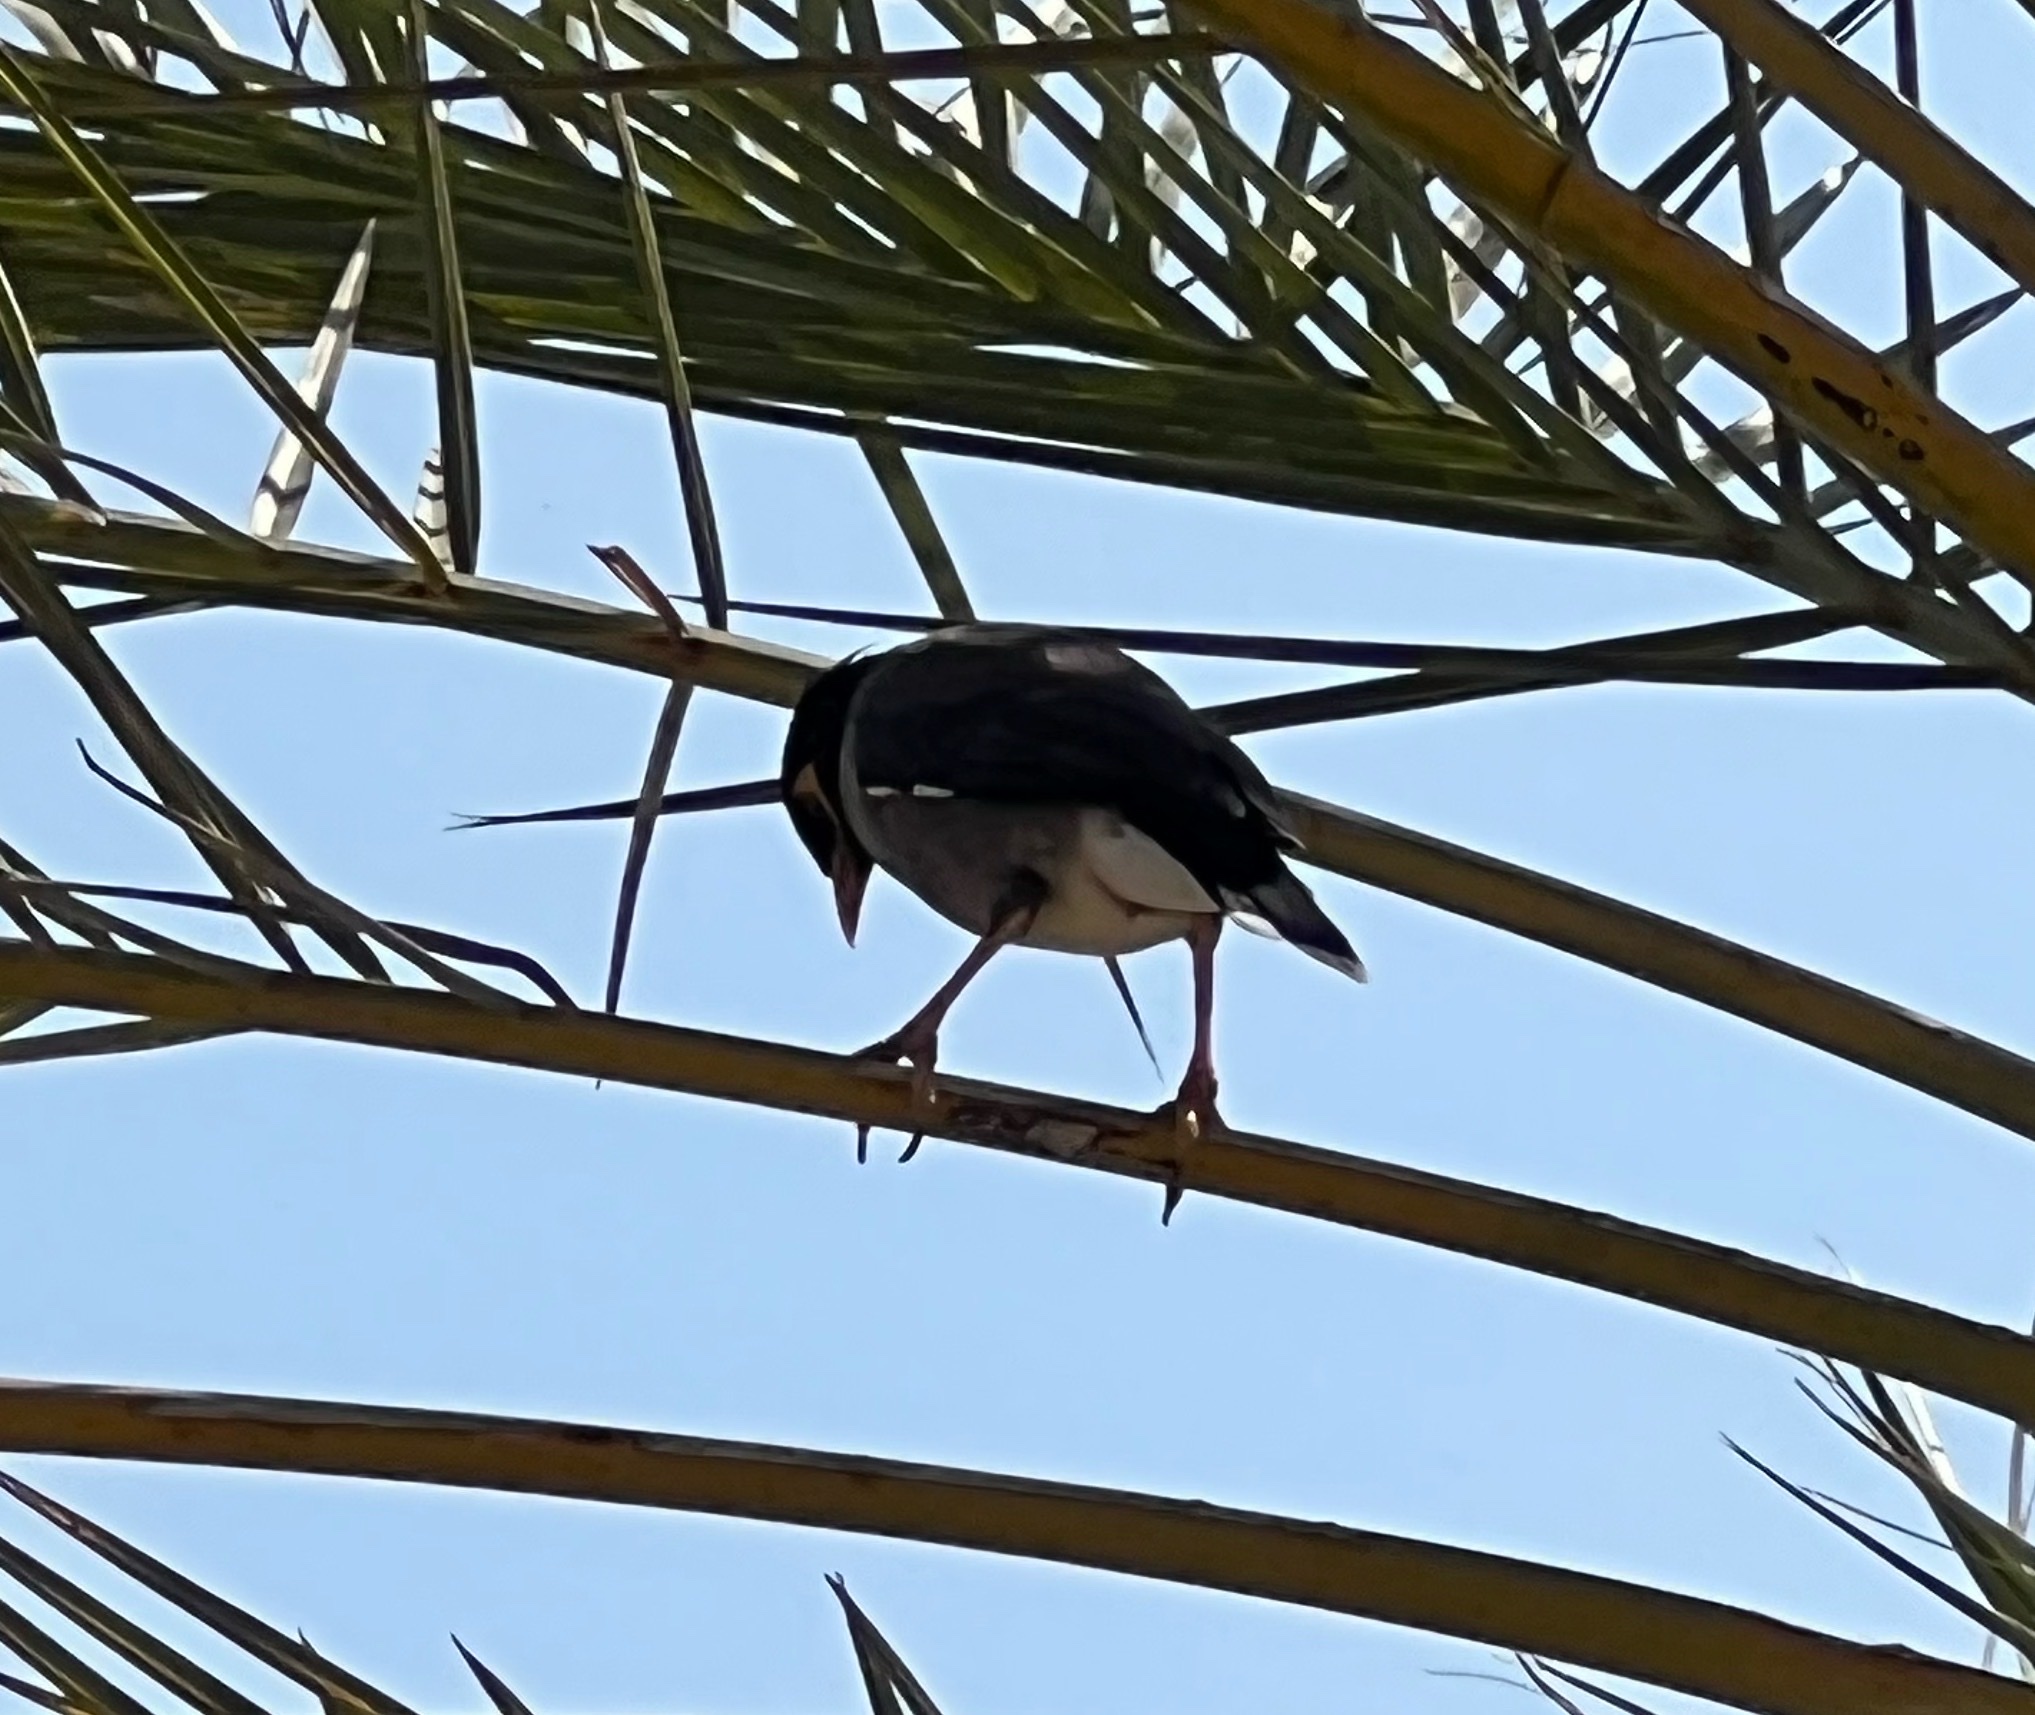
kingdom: Animalia
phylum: Chordata
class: Aves
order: Passeriformes
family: Sturnidae
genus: Acridotheres
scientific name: Acridotheres tristis
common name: Common myna
